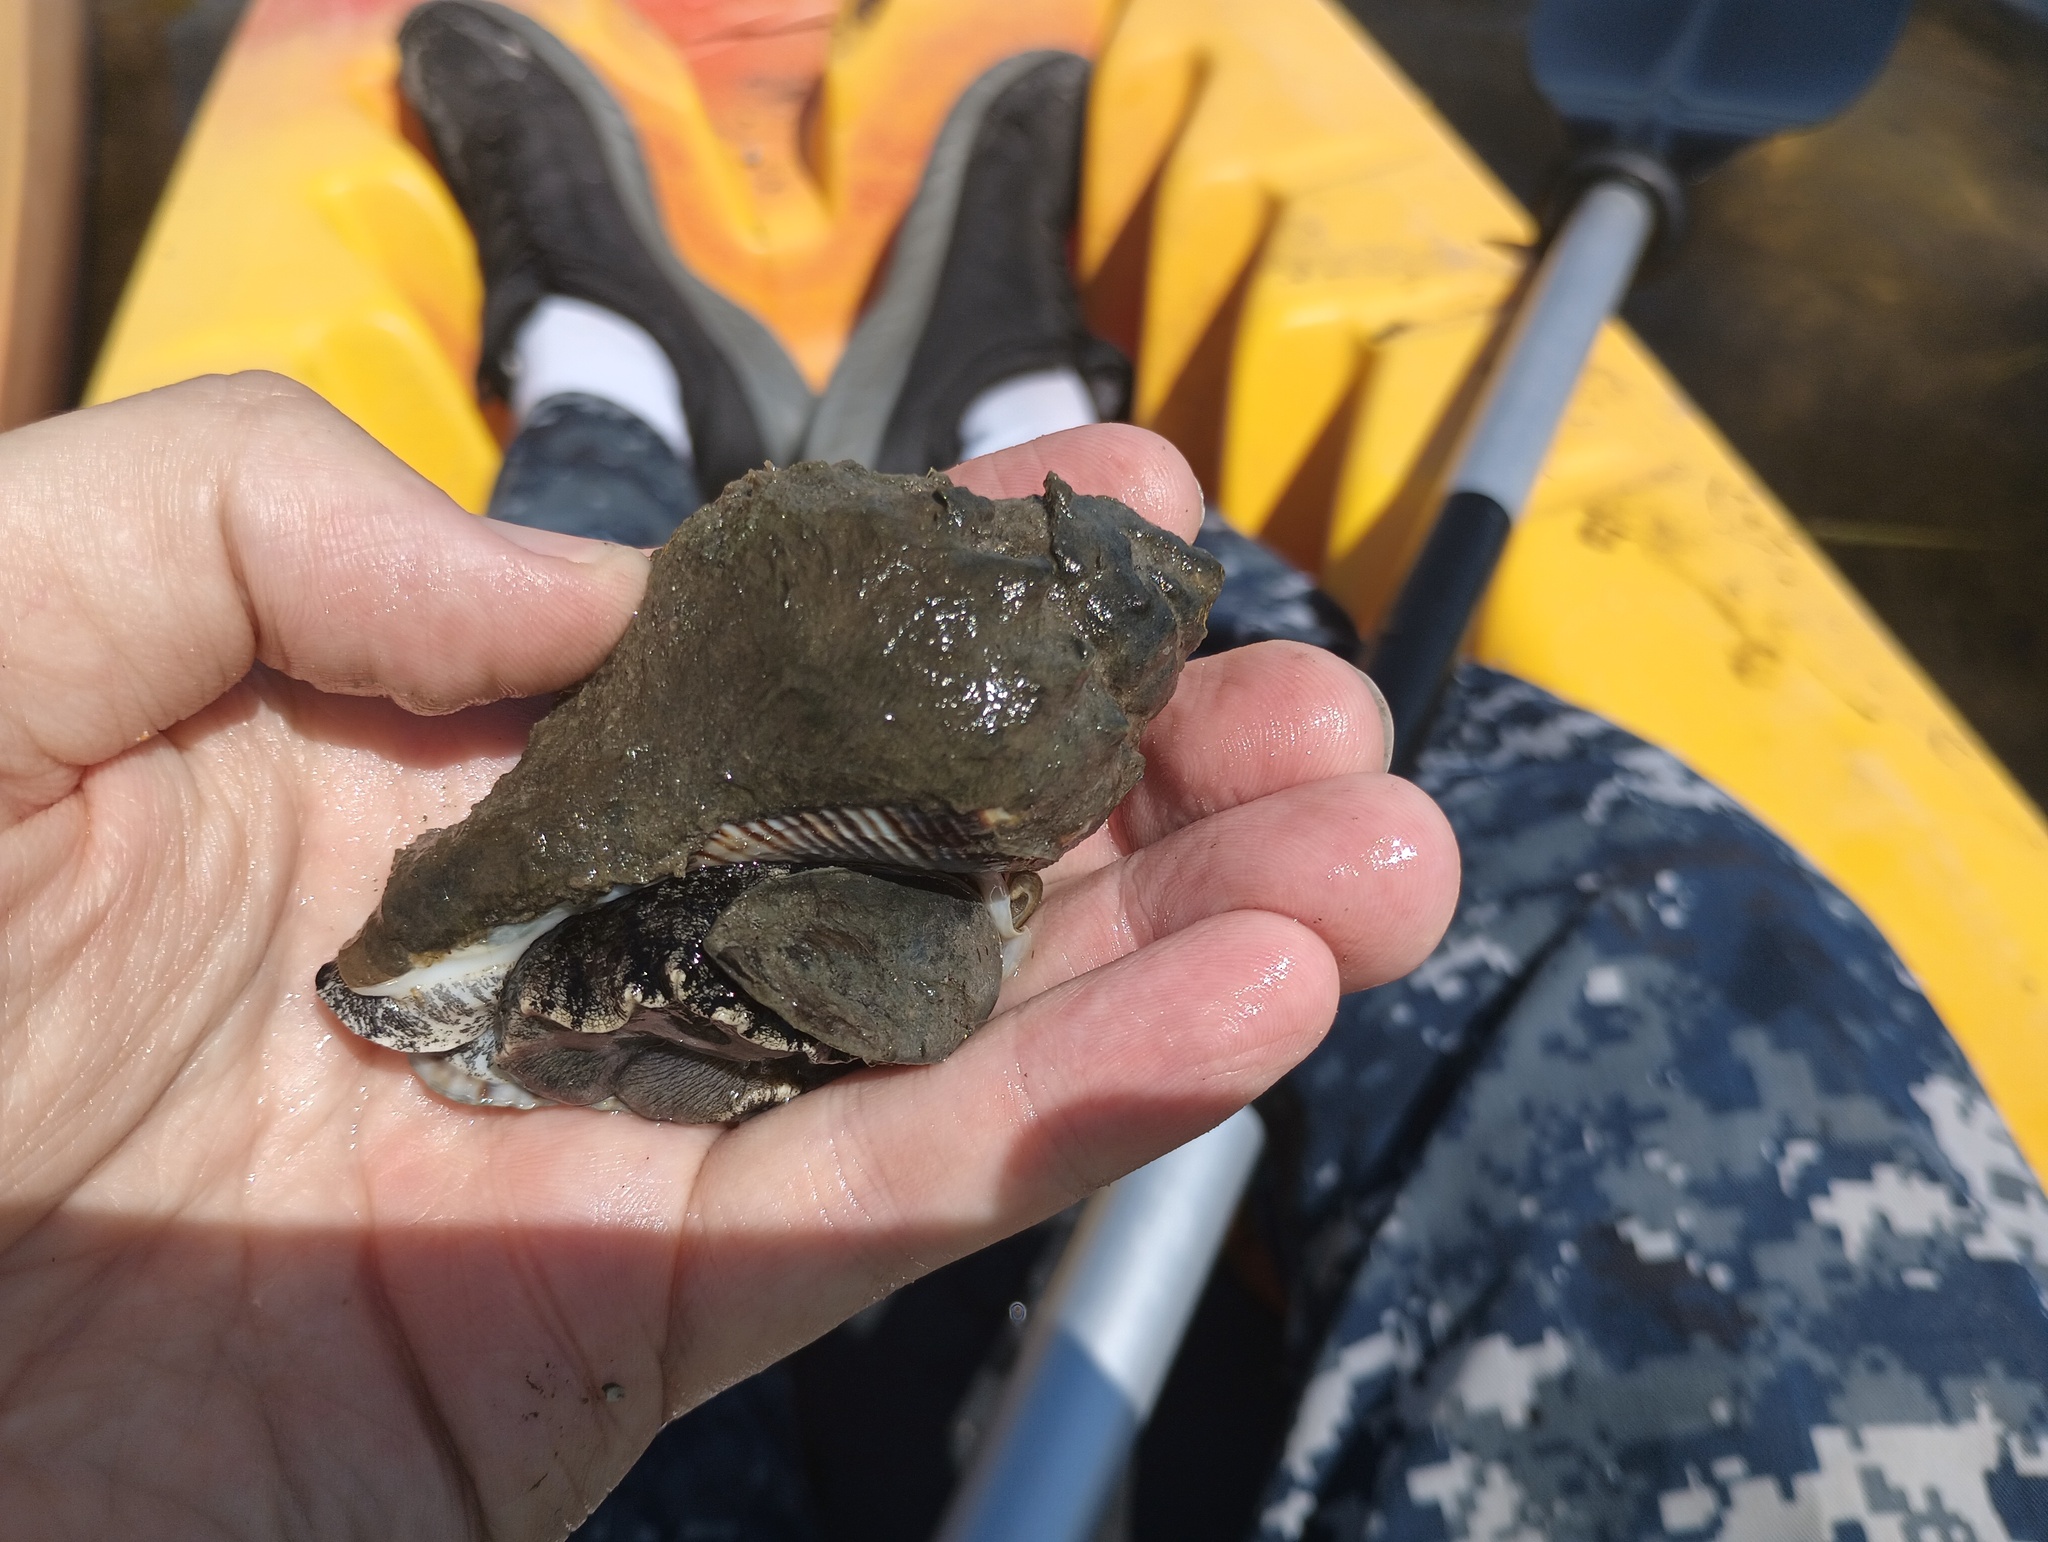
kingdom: Animalia
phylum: Mollusca
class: Gastropoda
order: Neogastropoda
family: Melongenidae
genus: Melongena
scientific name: Melongena corona
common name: American crown conch
